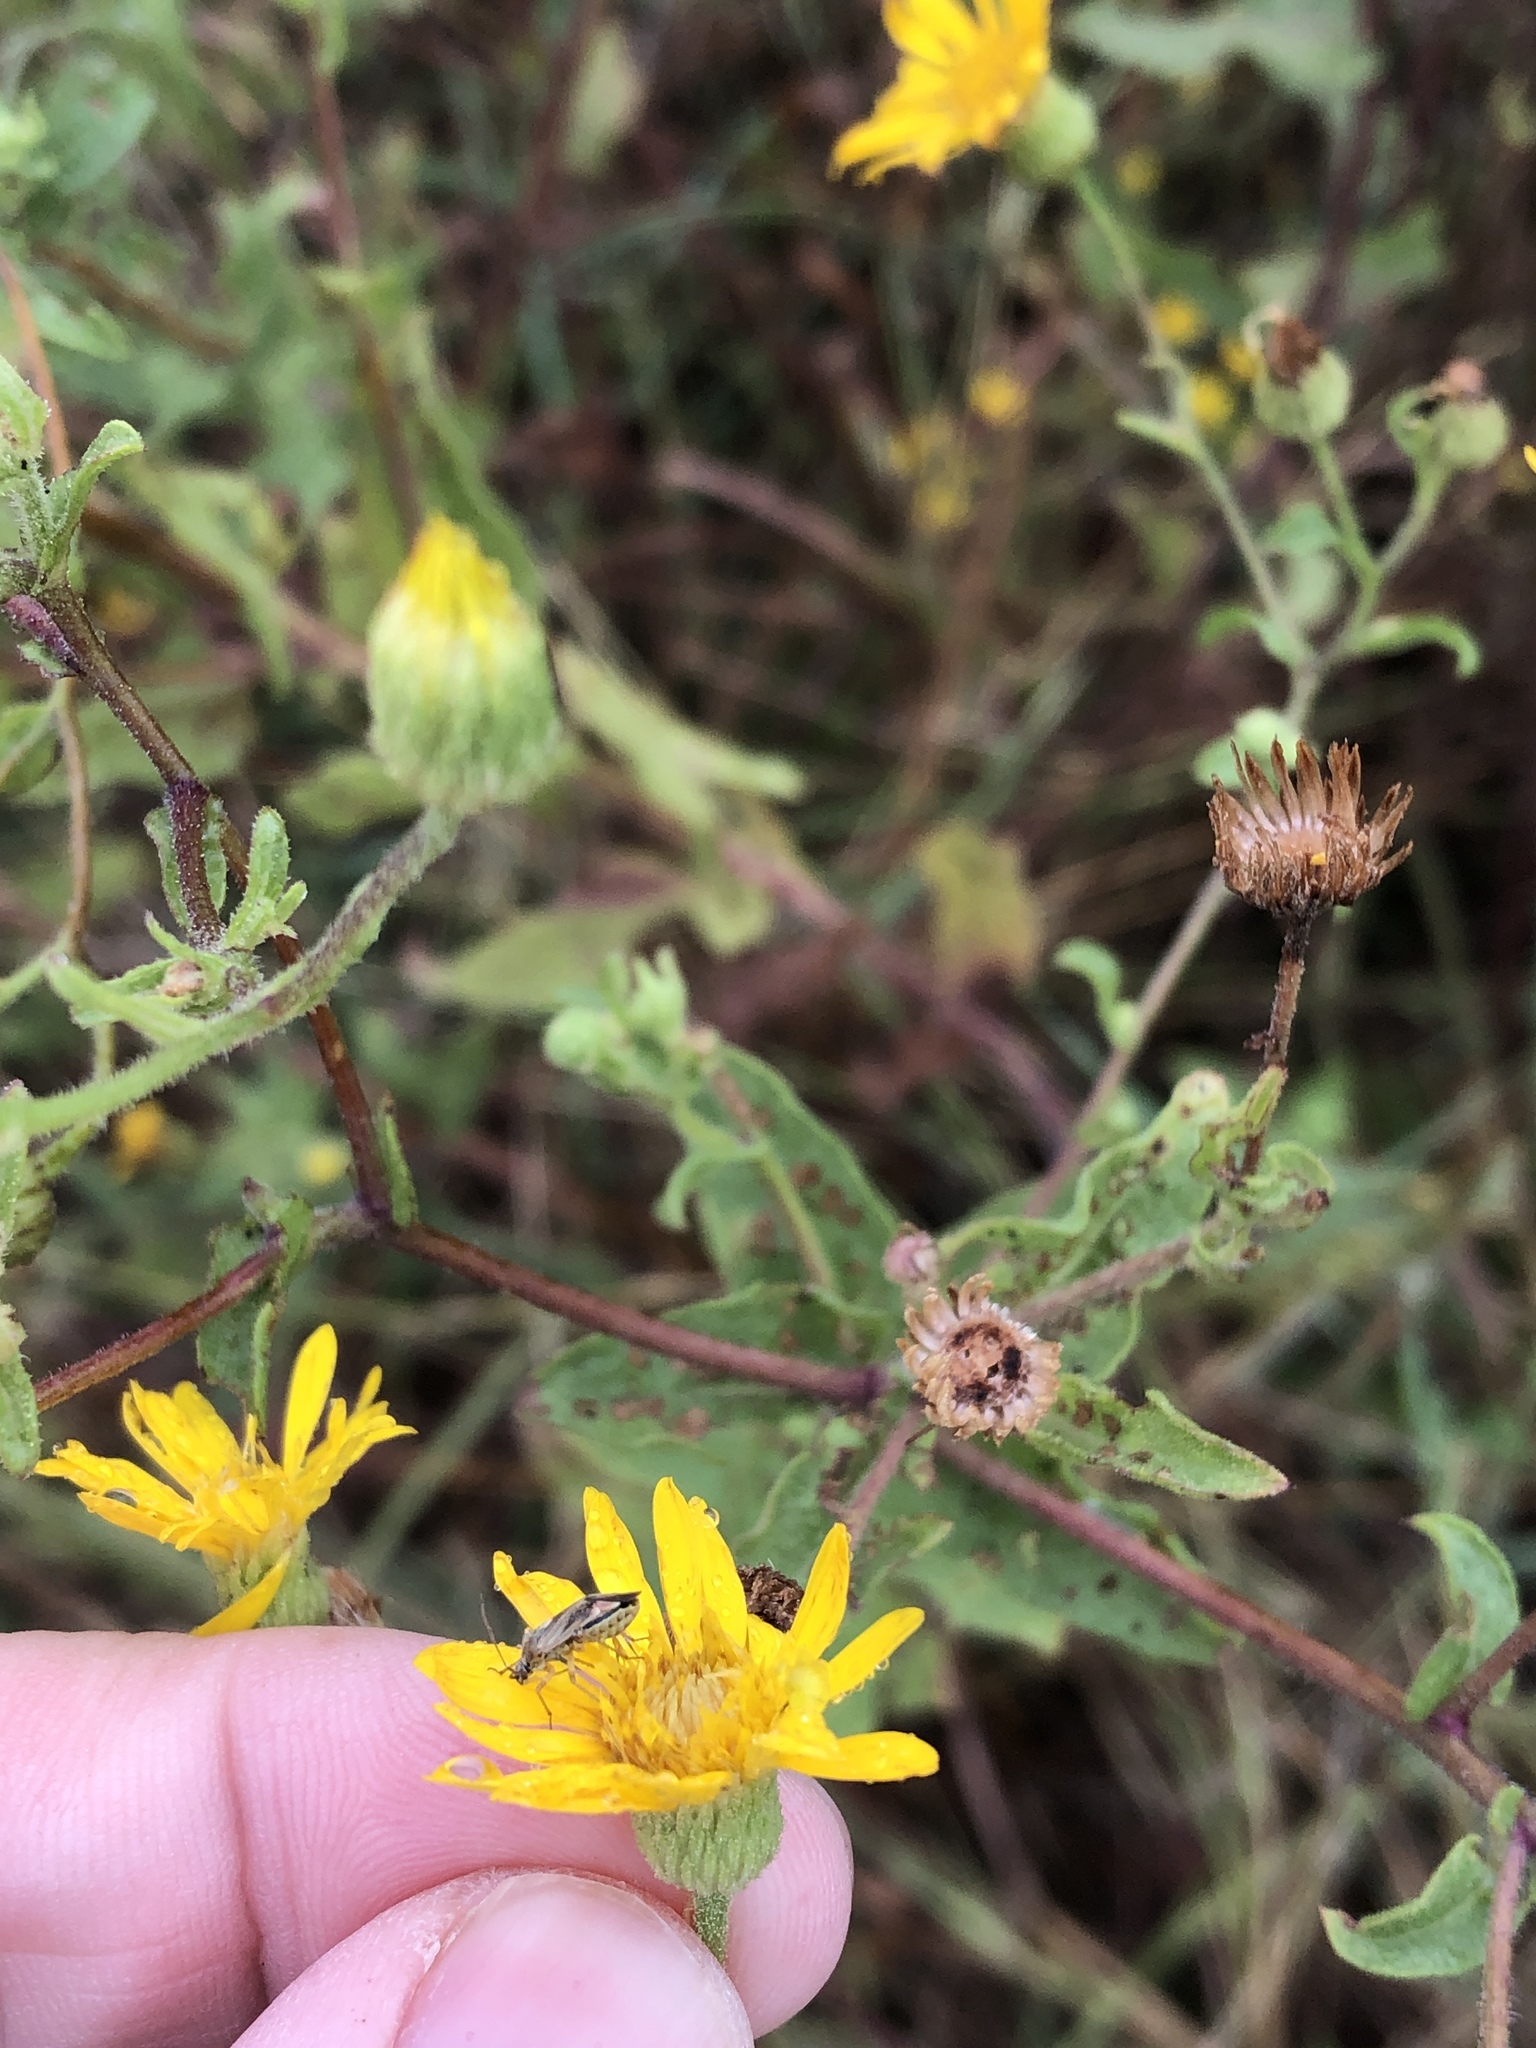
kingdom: Plantae
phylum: Tracheophyta
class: Magnoliopsida
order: Asterales
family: Asteraceae
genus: Heterotheca
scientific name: Heterotheca subaxillaris
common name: Camphorweed
